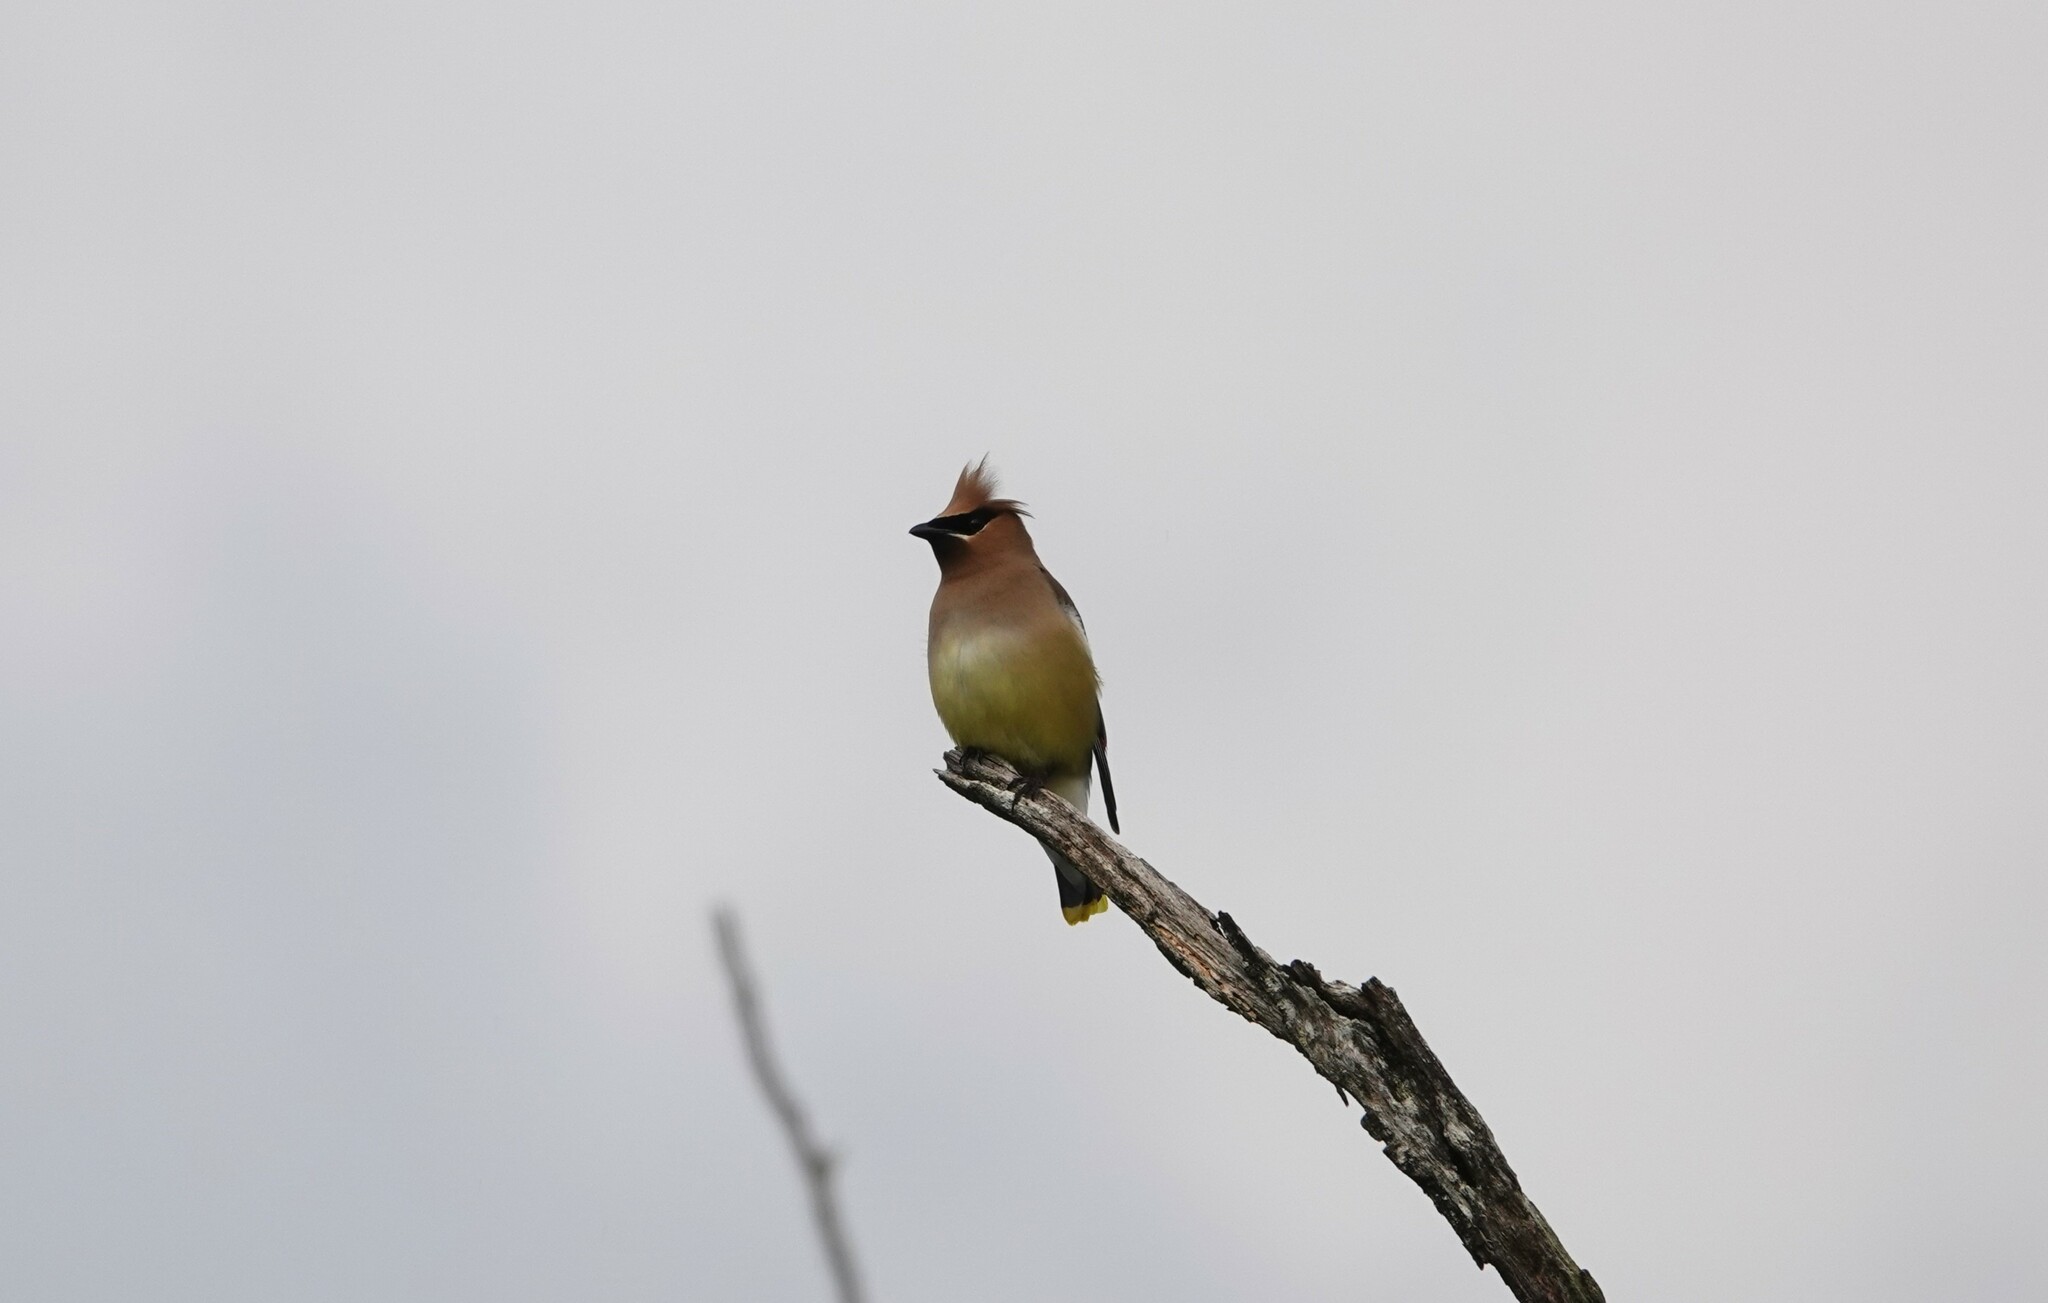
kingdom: Animalia
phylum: Chordata
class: Aves
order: Passeriformes
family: Bombycillidae
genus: Bombycilla
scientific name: Bombycilla cedrorum
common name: Cedar waxwing
